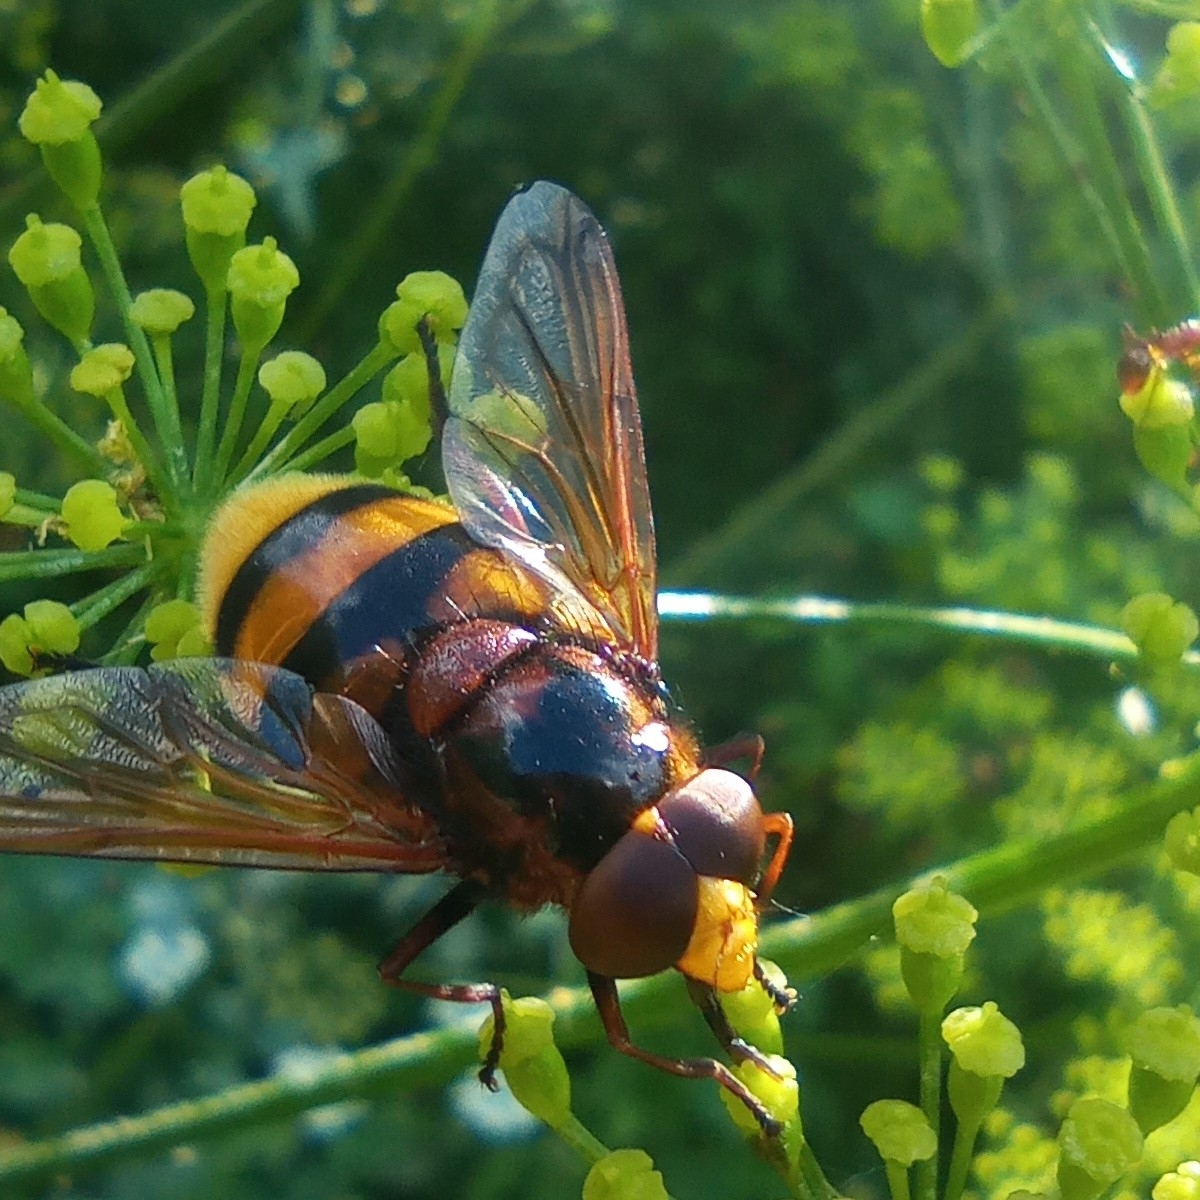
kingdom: Animalia
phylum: Arthropoda
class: Insecta
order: Diptera
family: Syrphidae
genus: Volucella
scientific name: Volucella zonaria
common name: Hornet hoverfly
